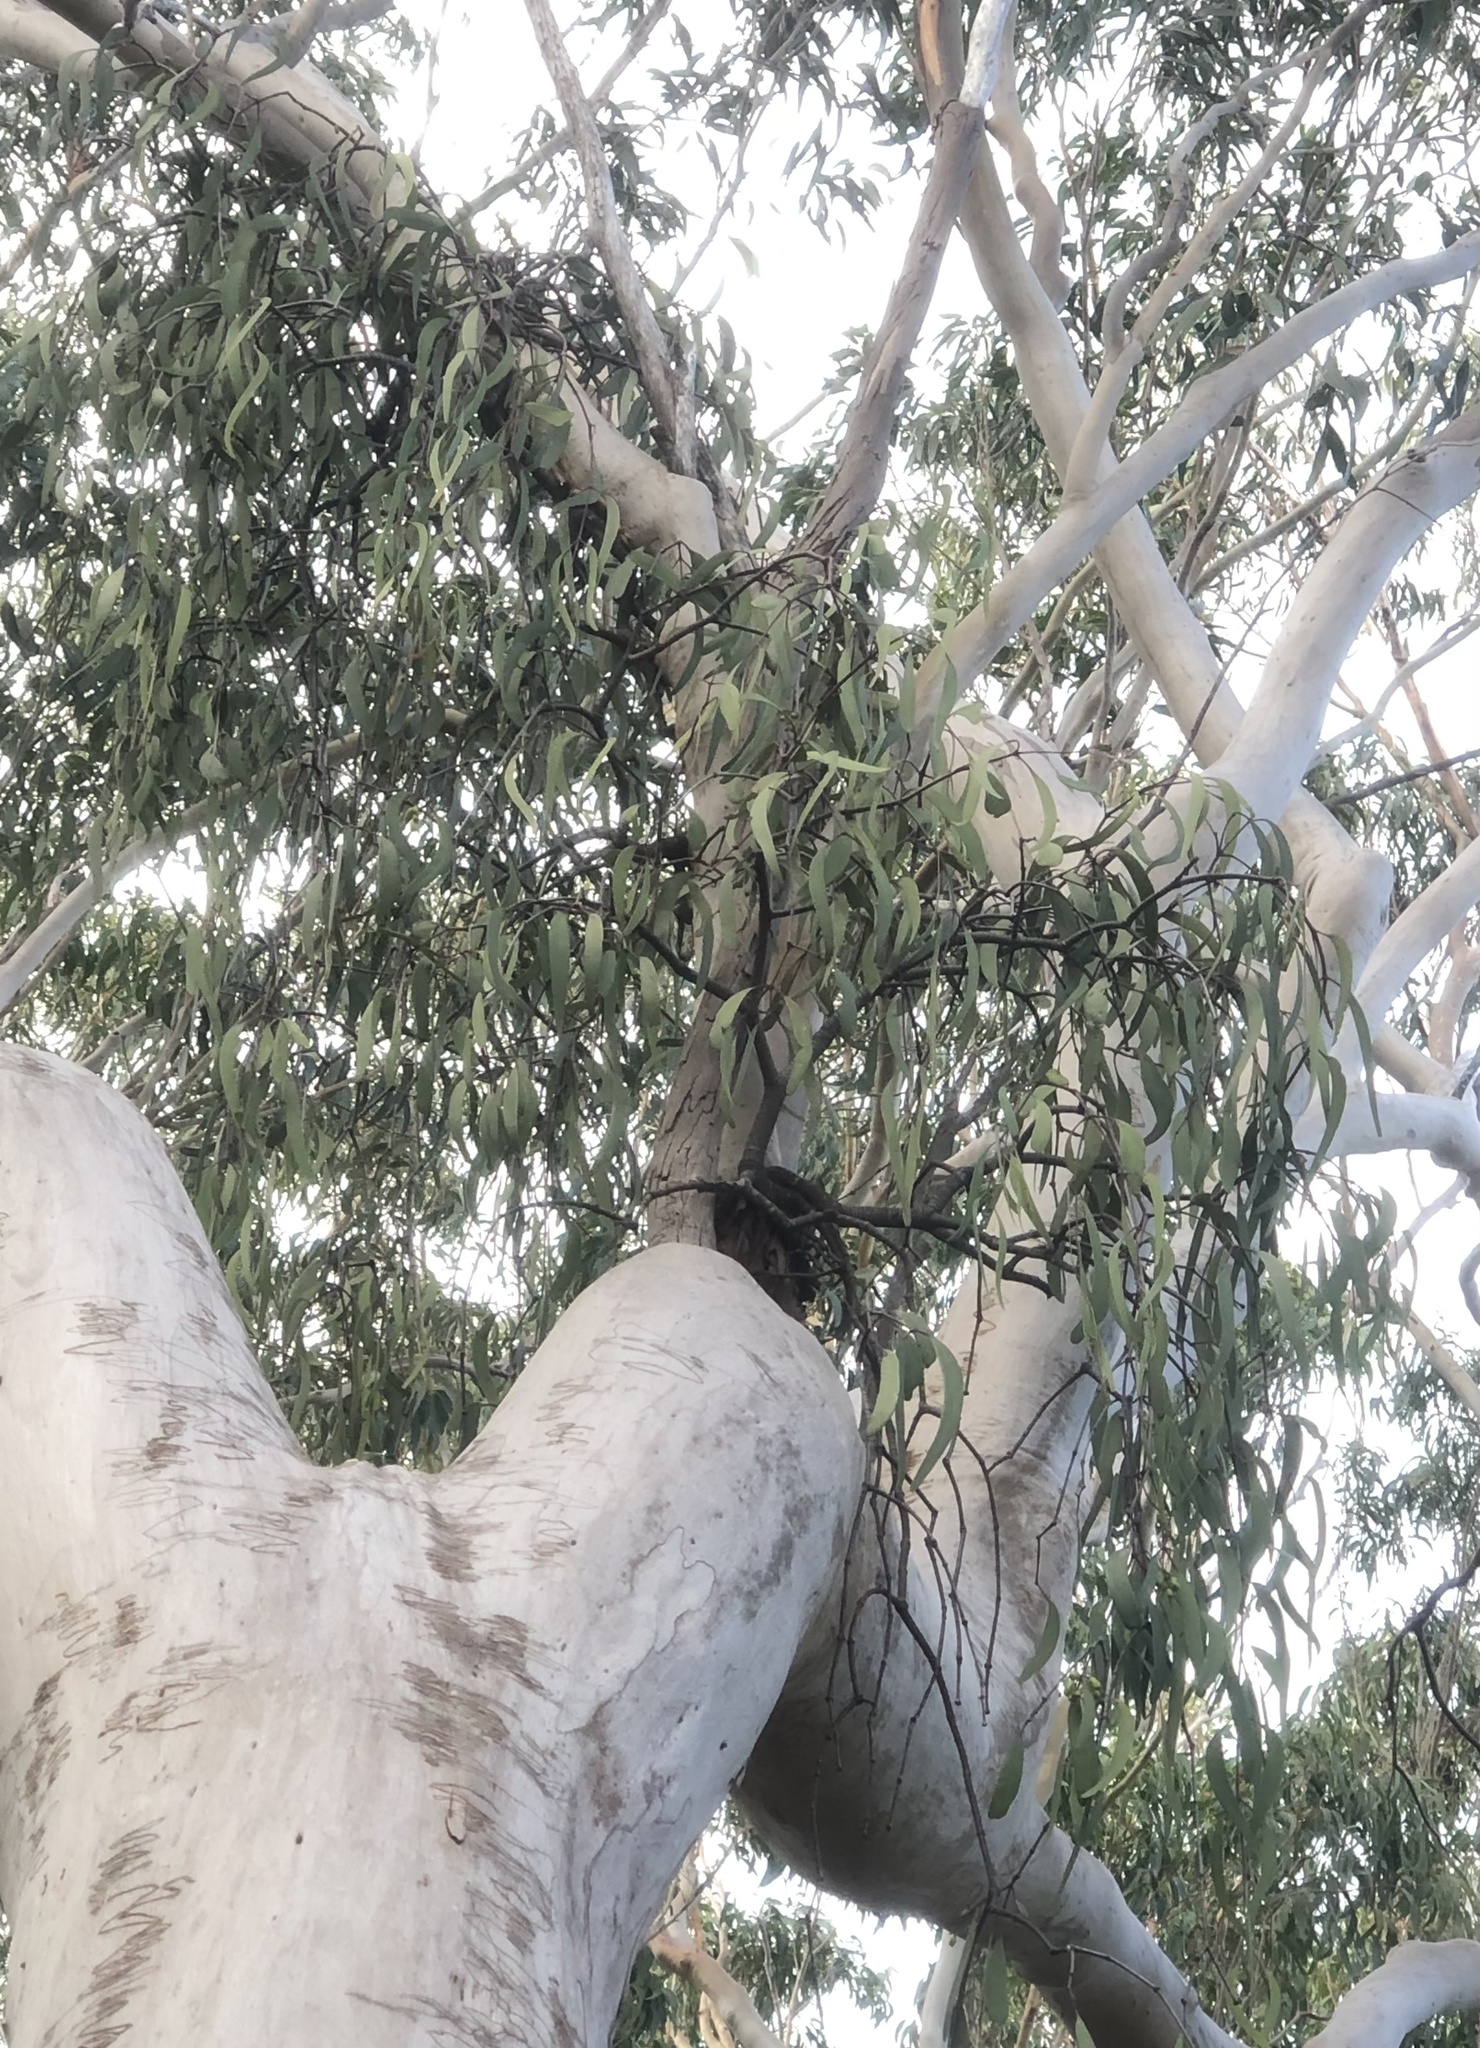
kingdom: Plantae
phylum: Tracheophyta
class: Magnoliopsida
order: Santalales
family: Loranthaceae
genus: Muellerina
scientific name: Muellerina eucalyptoides
